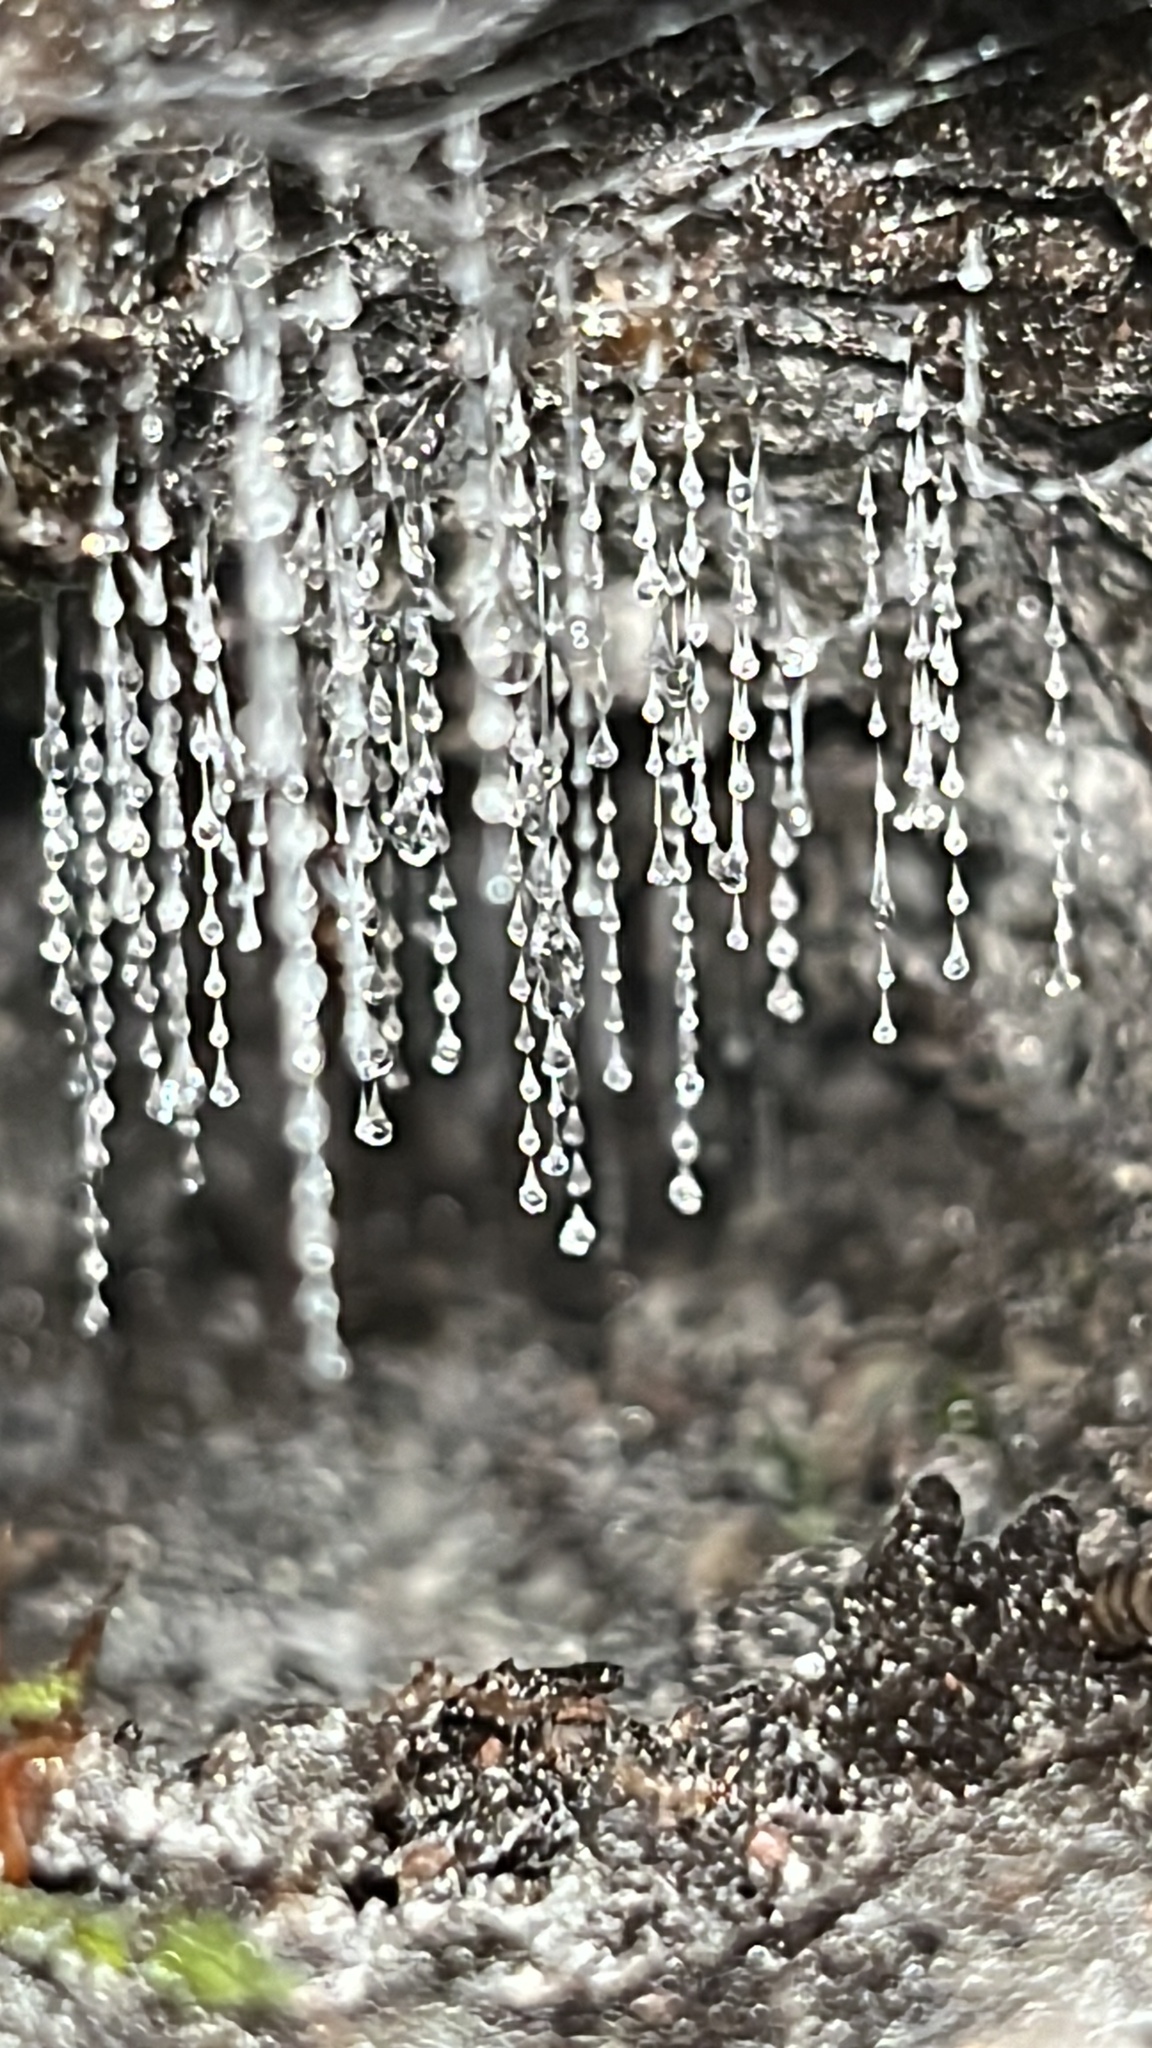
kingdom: Animalia
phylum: Arthropoda
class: Insecta
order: Diptera
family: Keroplatidae
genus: Arachnocampa
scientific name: Arachnocampa luminosa
